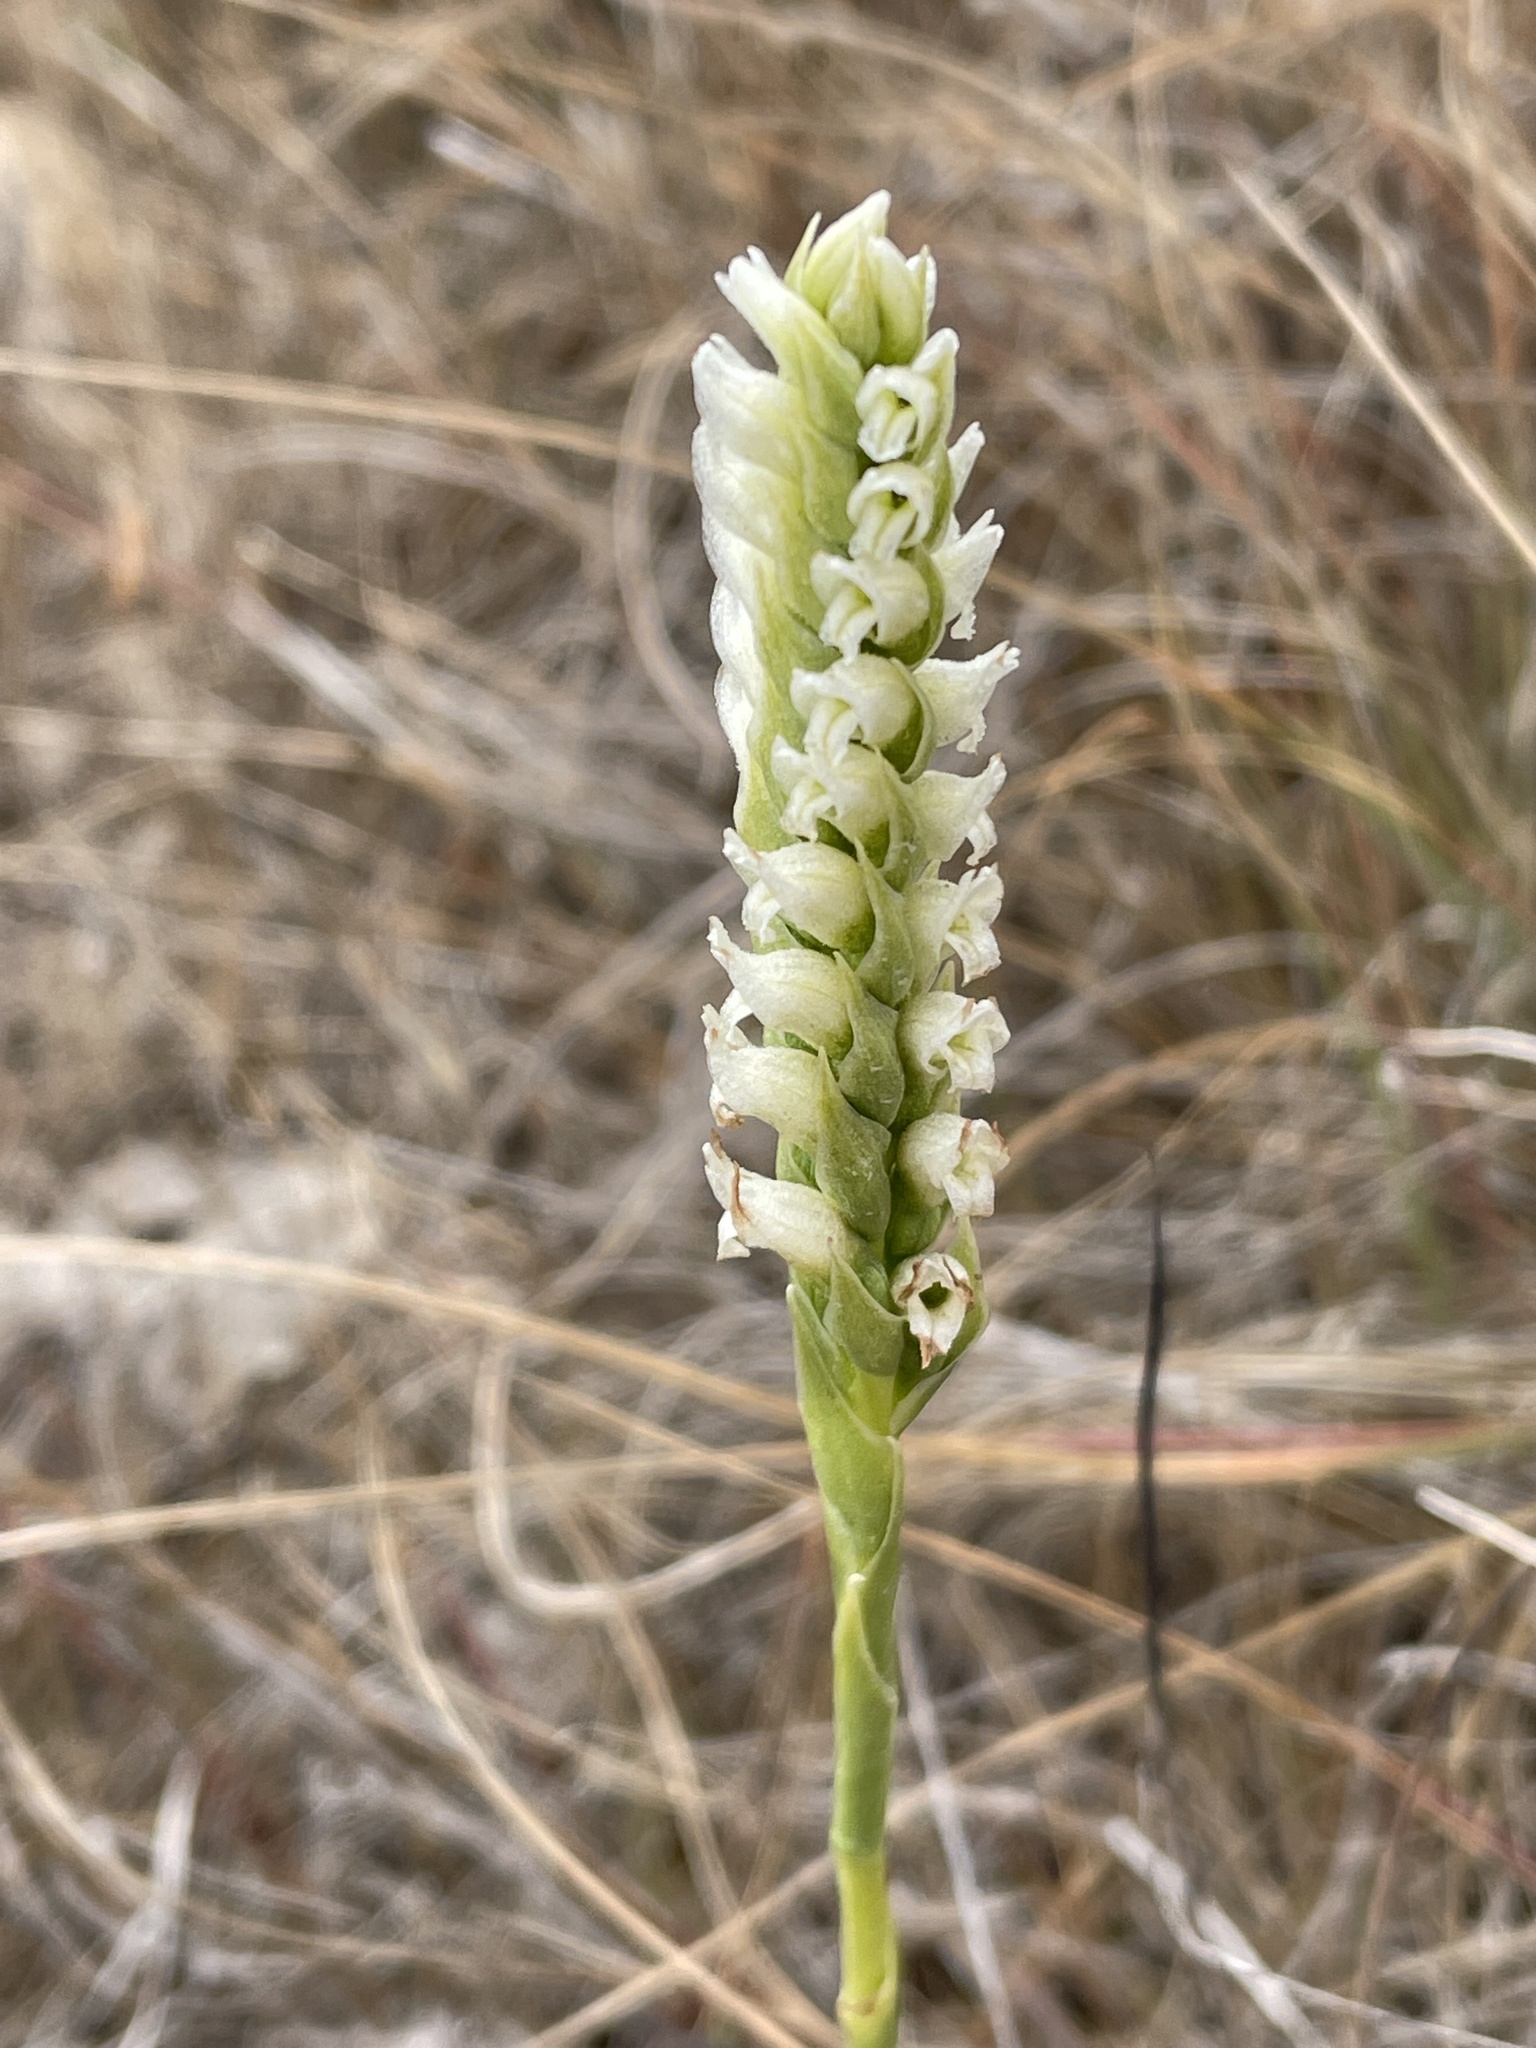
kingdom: Plantae
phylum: Tracheophyta
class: Liliopsida
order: Asparagales
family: Orchidaceae
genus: Spiranthes
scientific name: Spiranthes romanzoffiana
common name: Irish lady's-tresses
